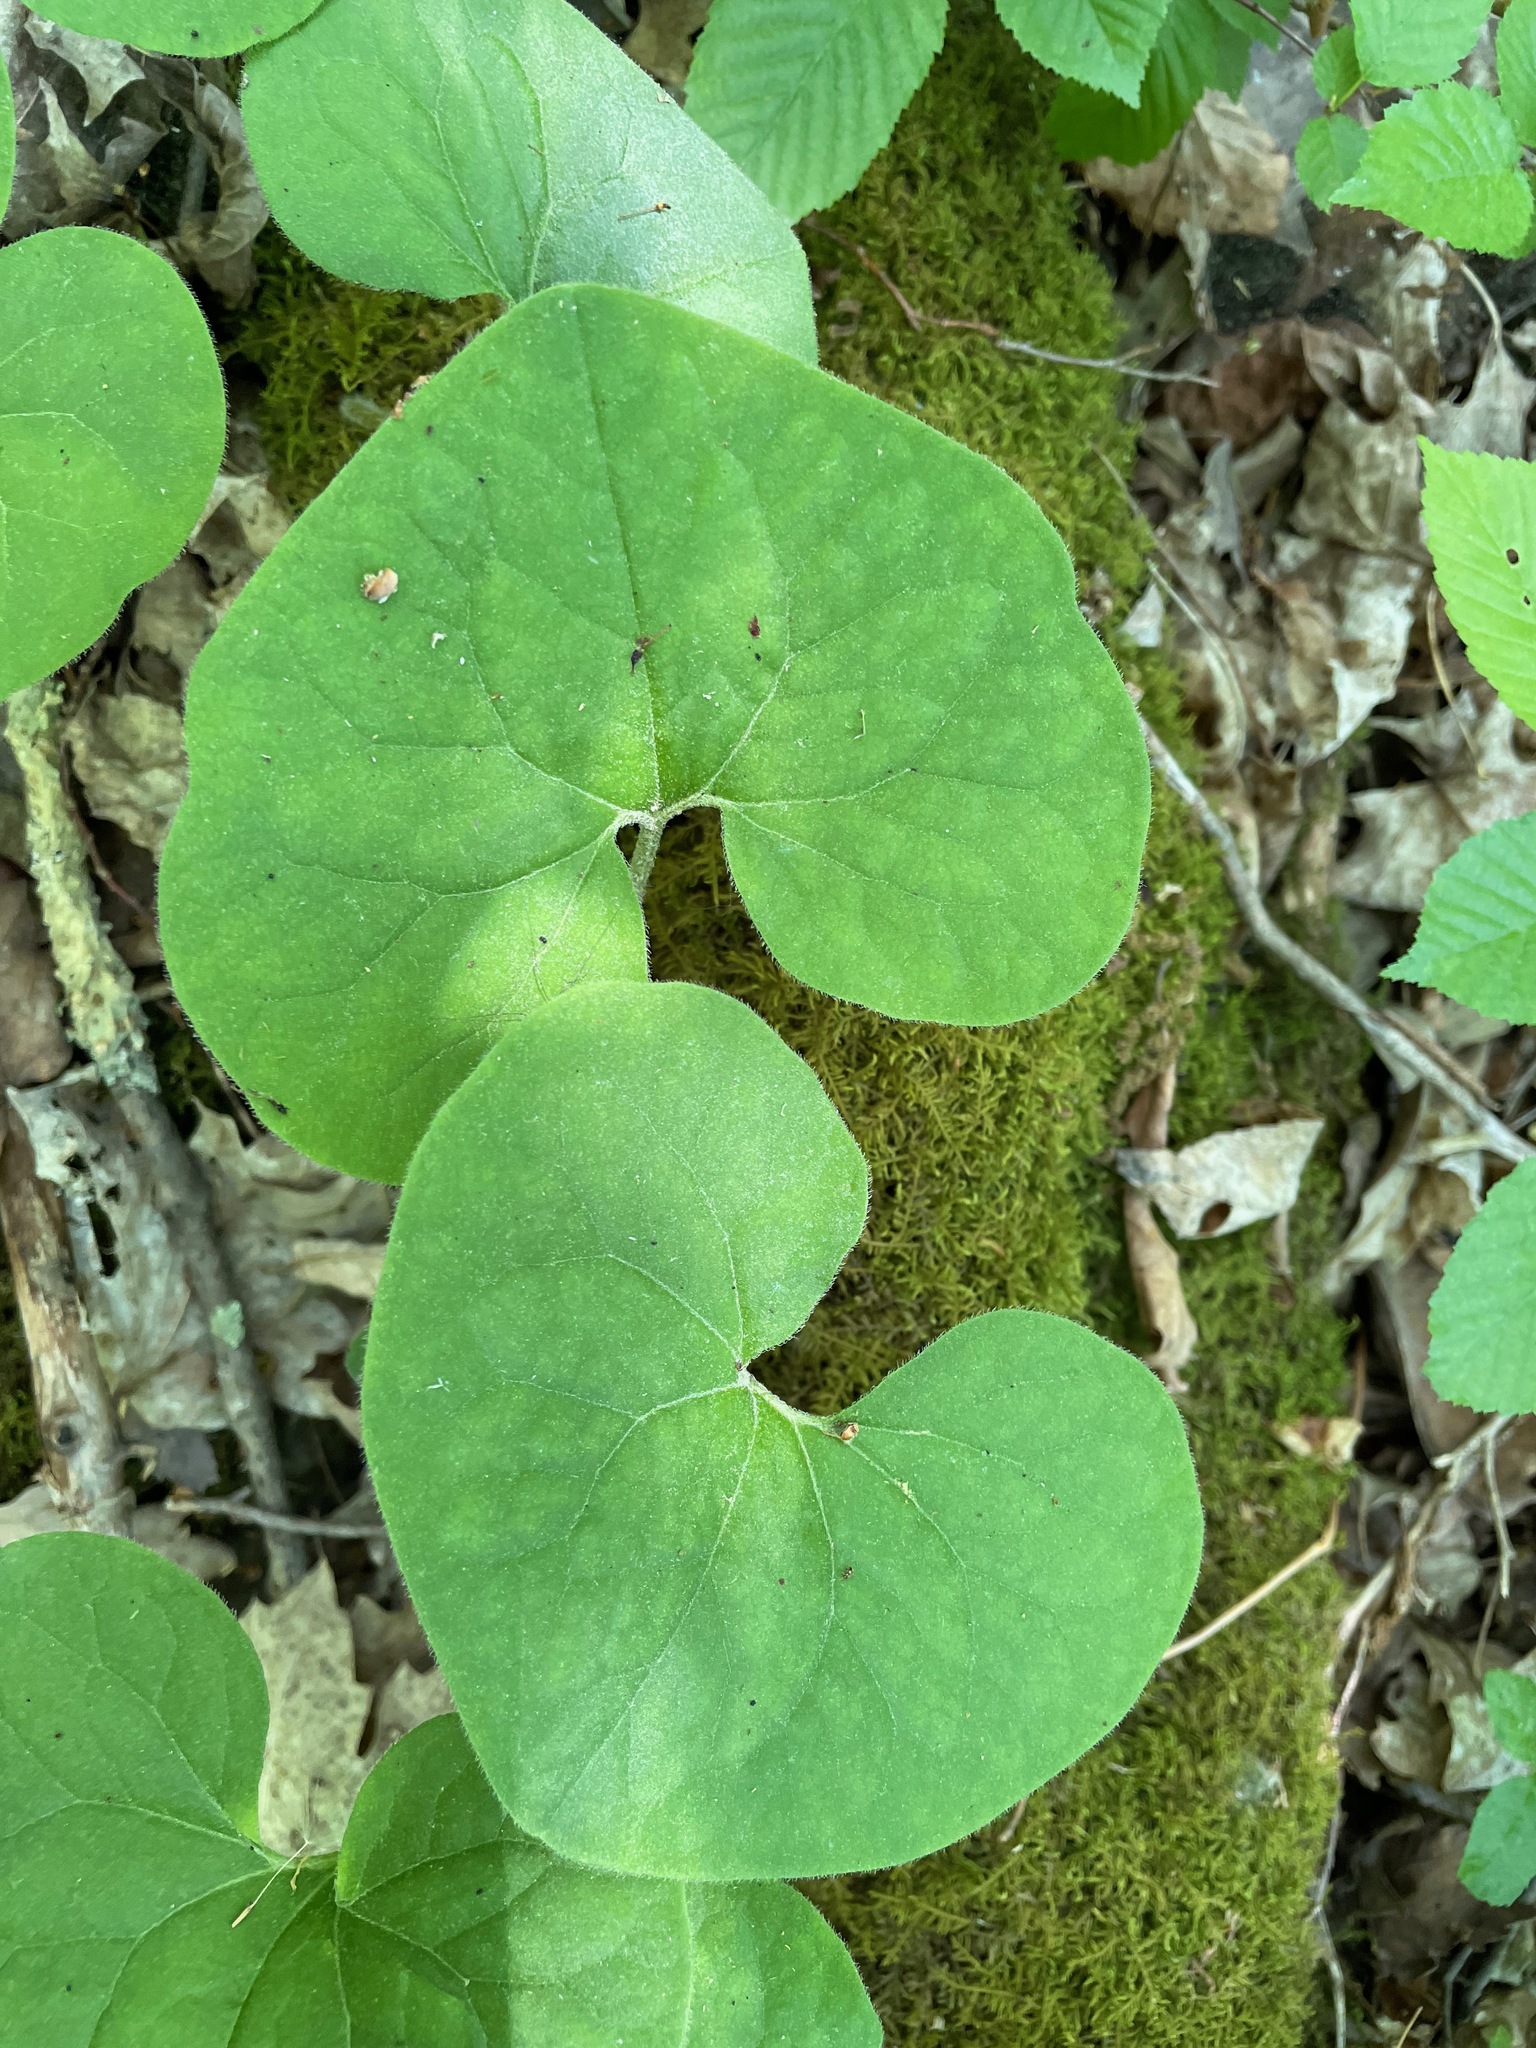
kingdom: Plantae
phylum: Tracheophyta
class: Magnoliopsida
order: Piperales
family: Aristolochiaceae
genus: Asarum
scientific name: Asarum canadense
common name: Wild ginger
